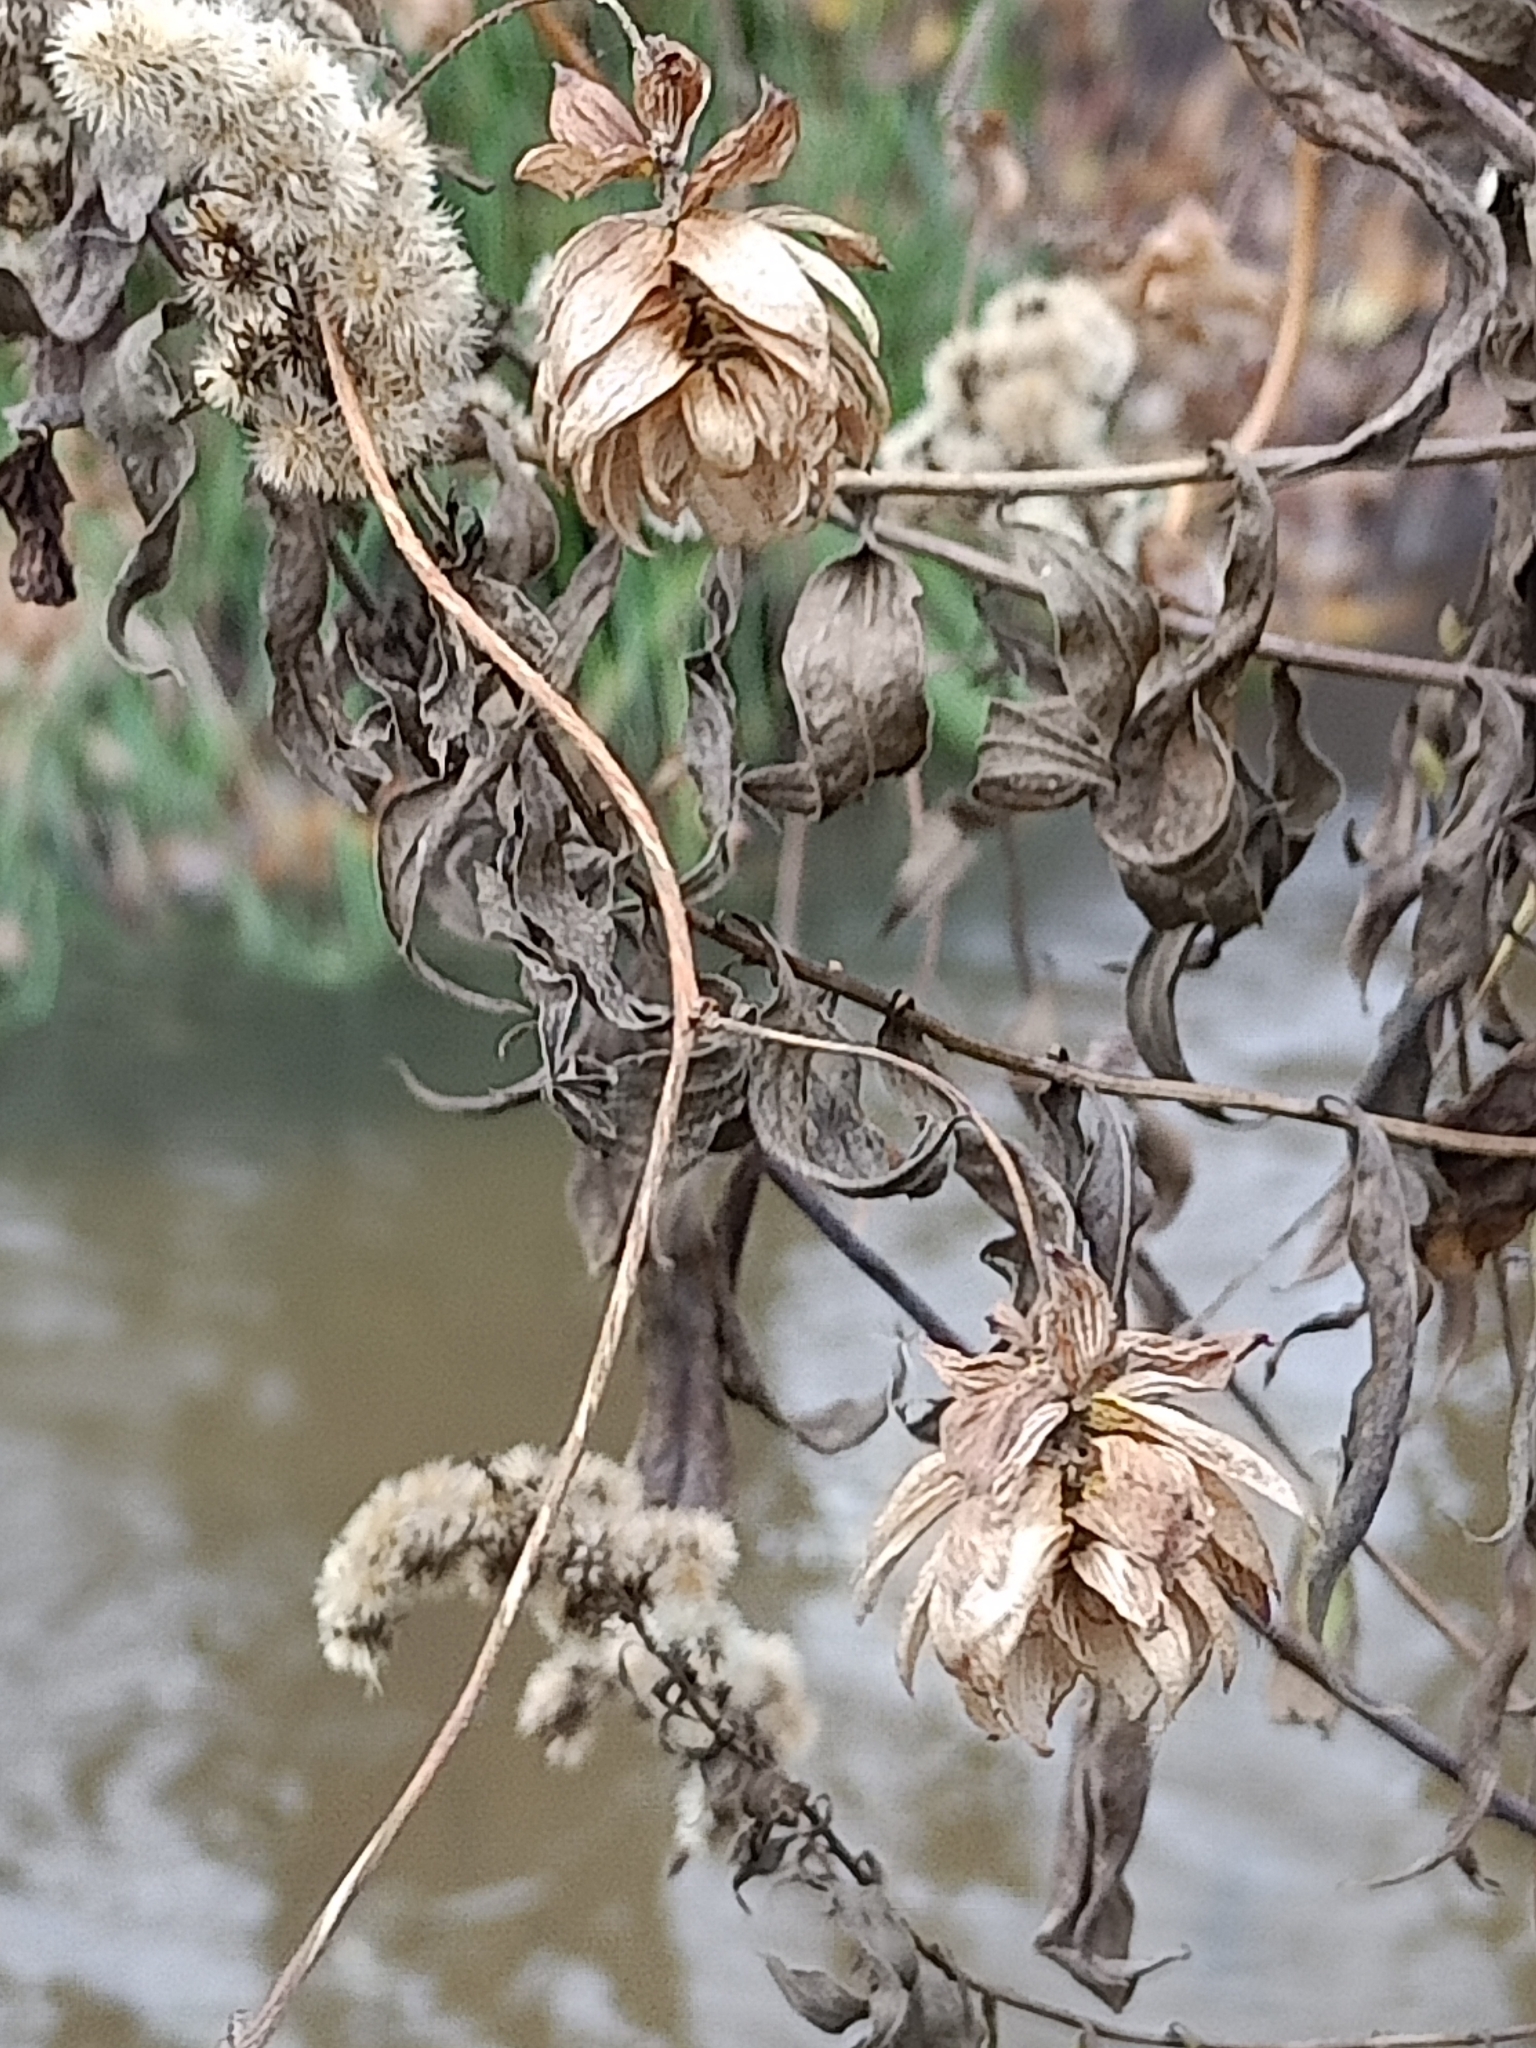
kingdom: Plantae
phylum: Tracheophyta
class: Magnoliopsida
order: Rosales
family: Cannabaceae
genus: Humulus
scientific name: Humulus lupulus
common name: Hop
